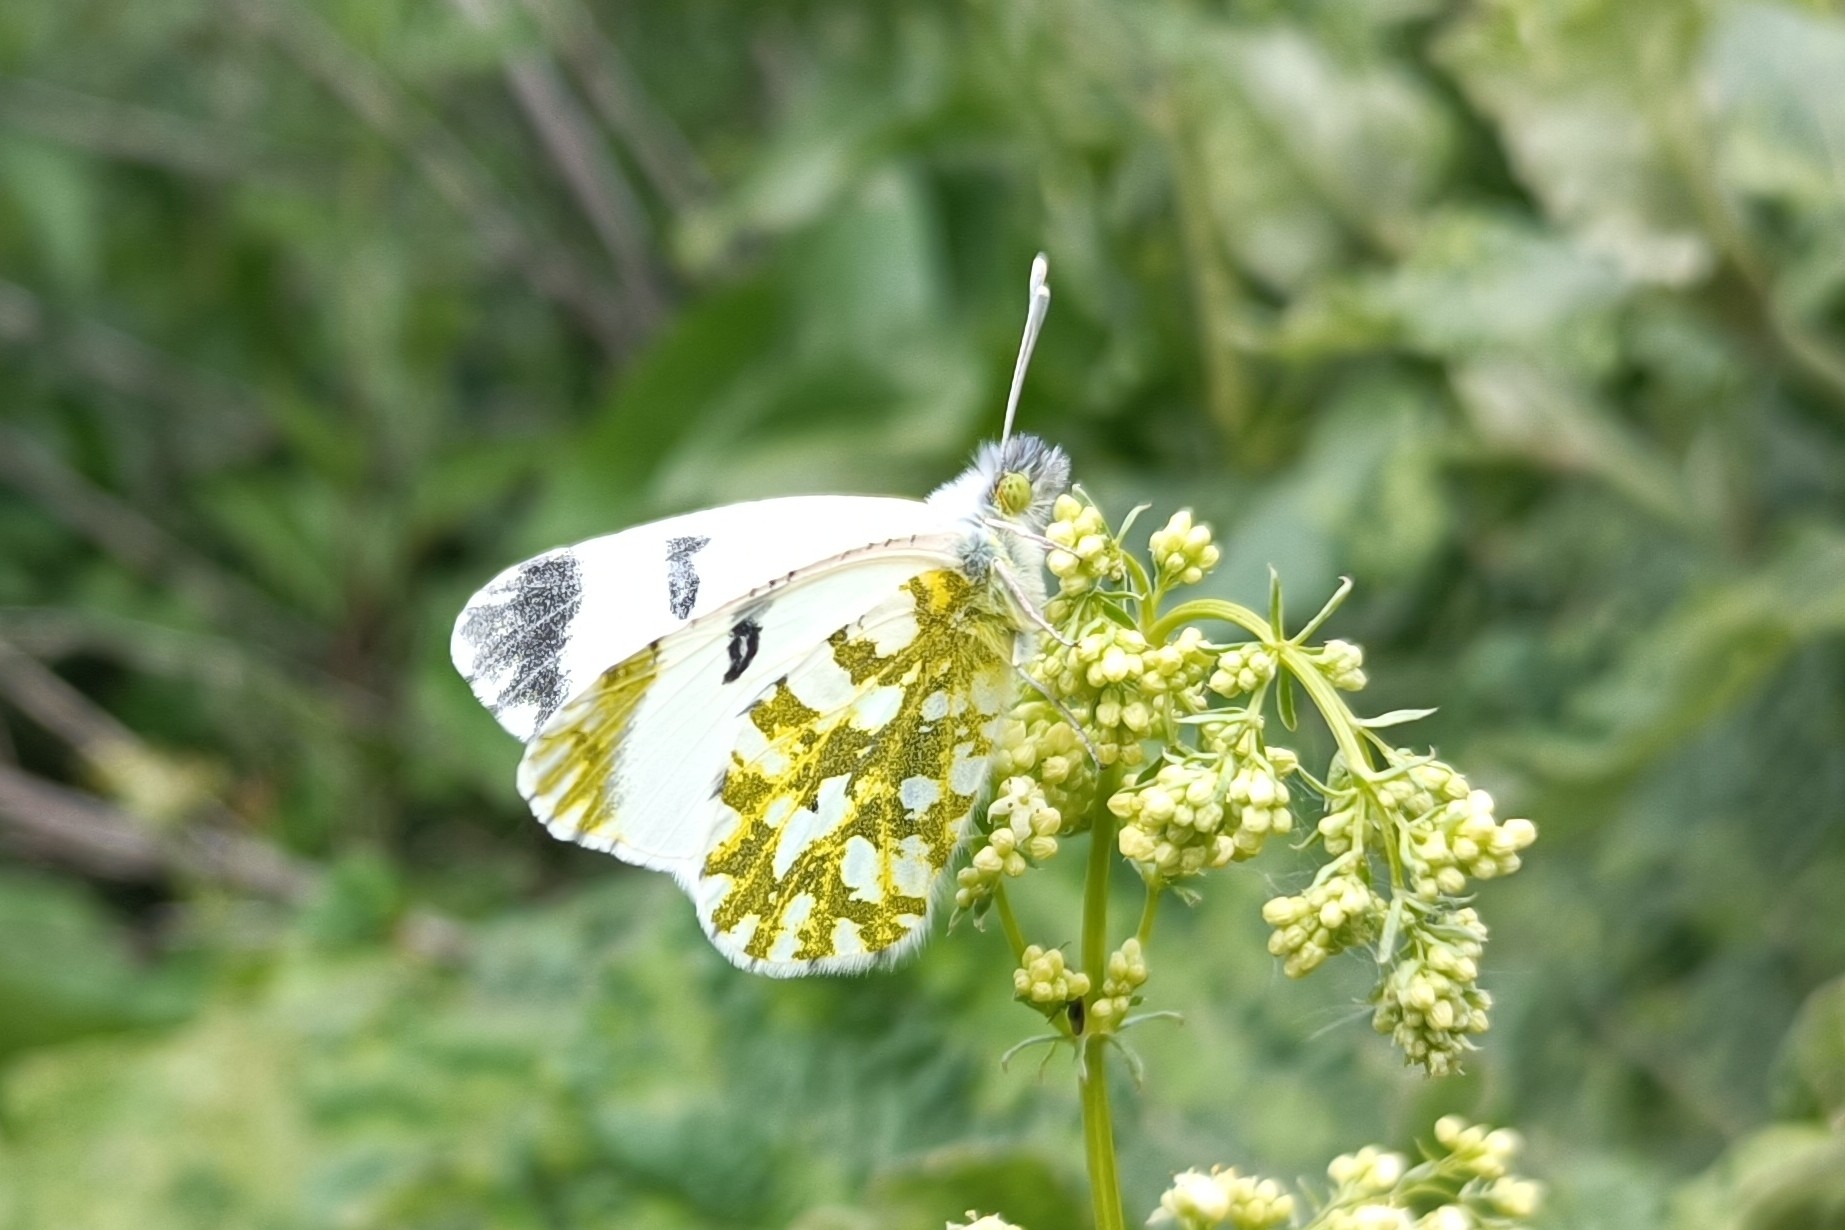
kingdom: Animalia
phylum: Arthropoda
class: Insecta
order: Lepidoptera
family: Pieridae
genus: Euchloe
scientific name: Euchloe ausonia
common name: Eastern dappled white
